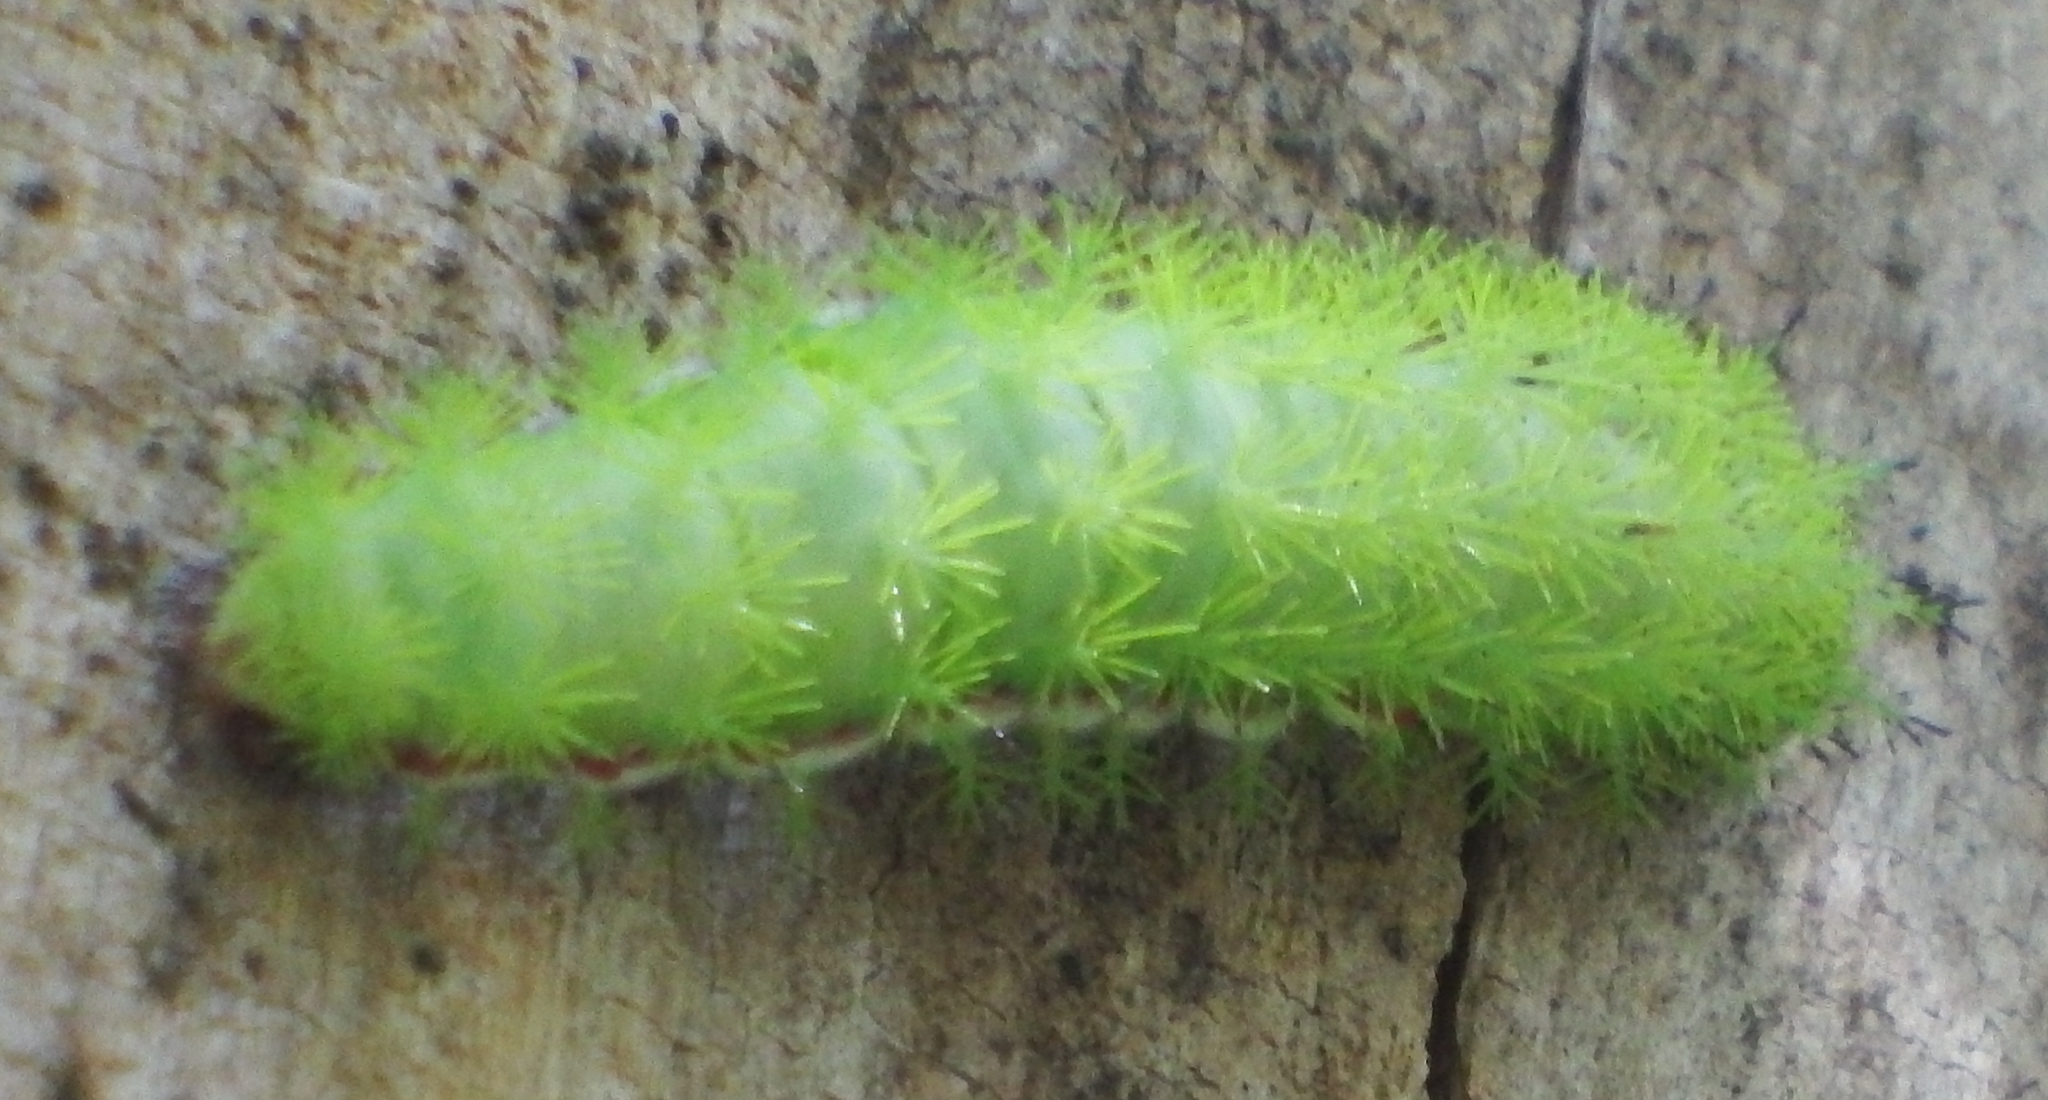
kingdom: Animalia
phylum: Arthropoda
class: Insecta
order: Lepidoptera
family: Saturniidae
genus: Automeris
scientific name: Automeris io
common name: Io moth
